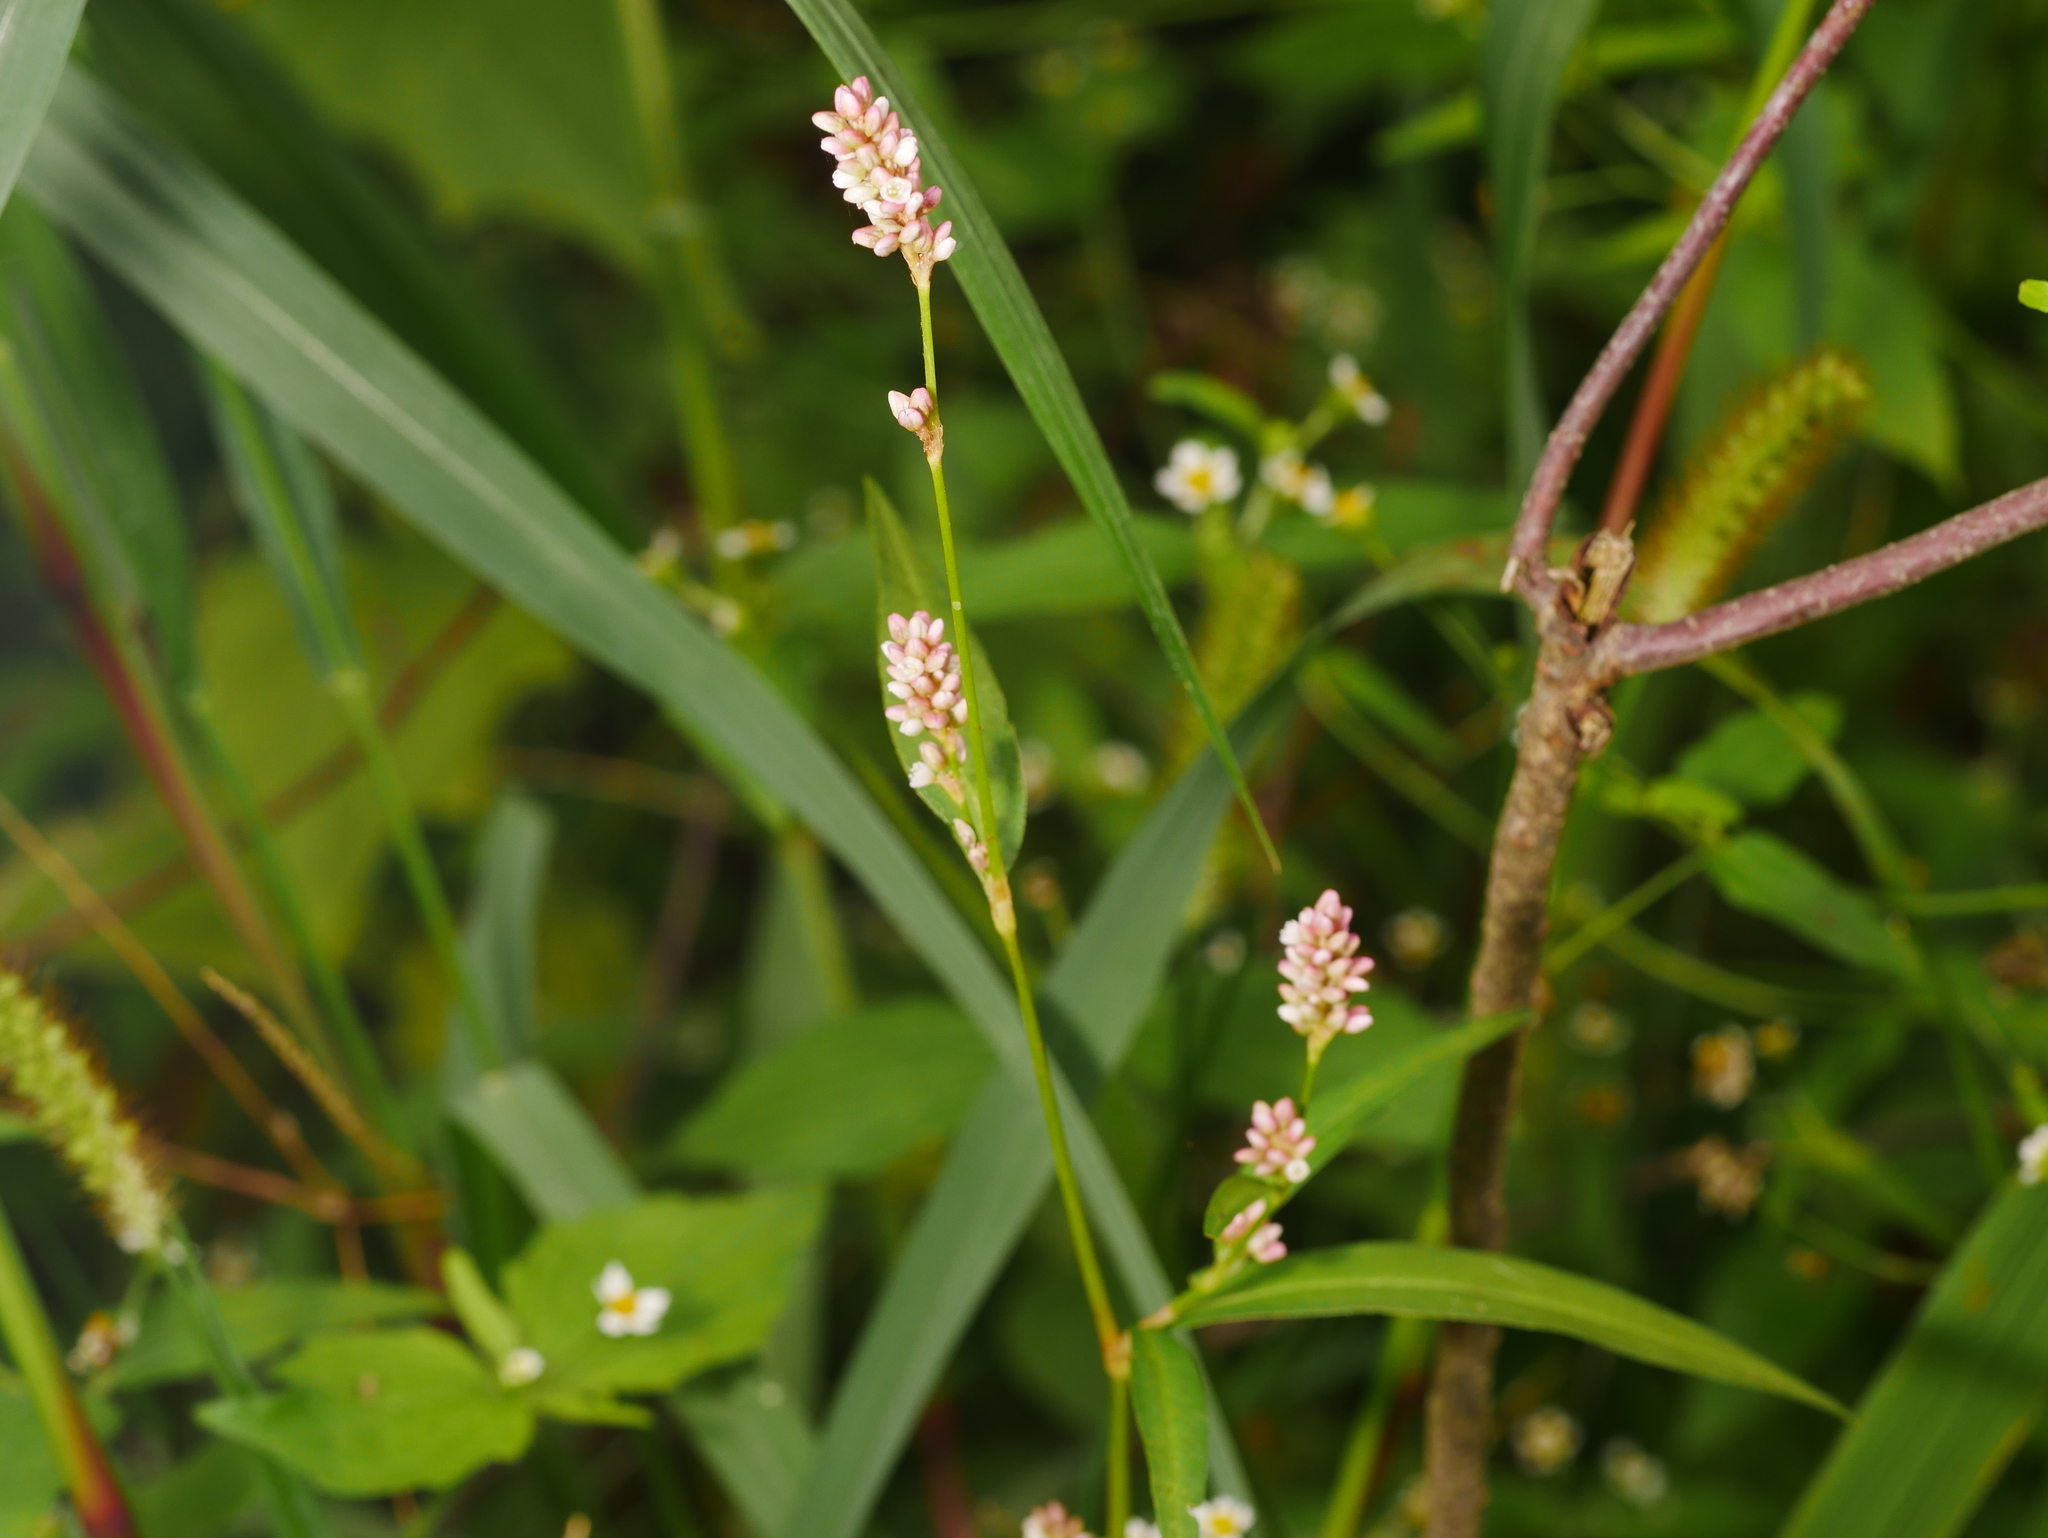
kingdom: Plantae
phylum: Tracheophyta
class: Magnoliopsida
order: Caryophyllales
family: Polygonaceae
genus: Persicaria
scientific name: Persicaria maculosa
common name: Redshank
